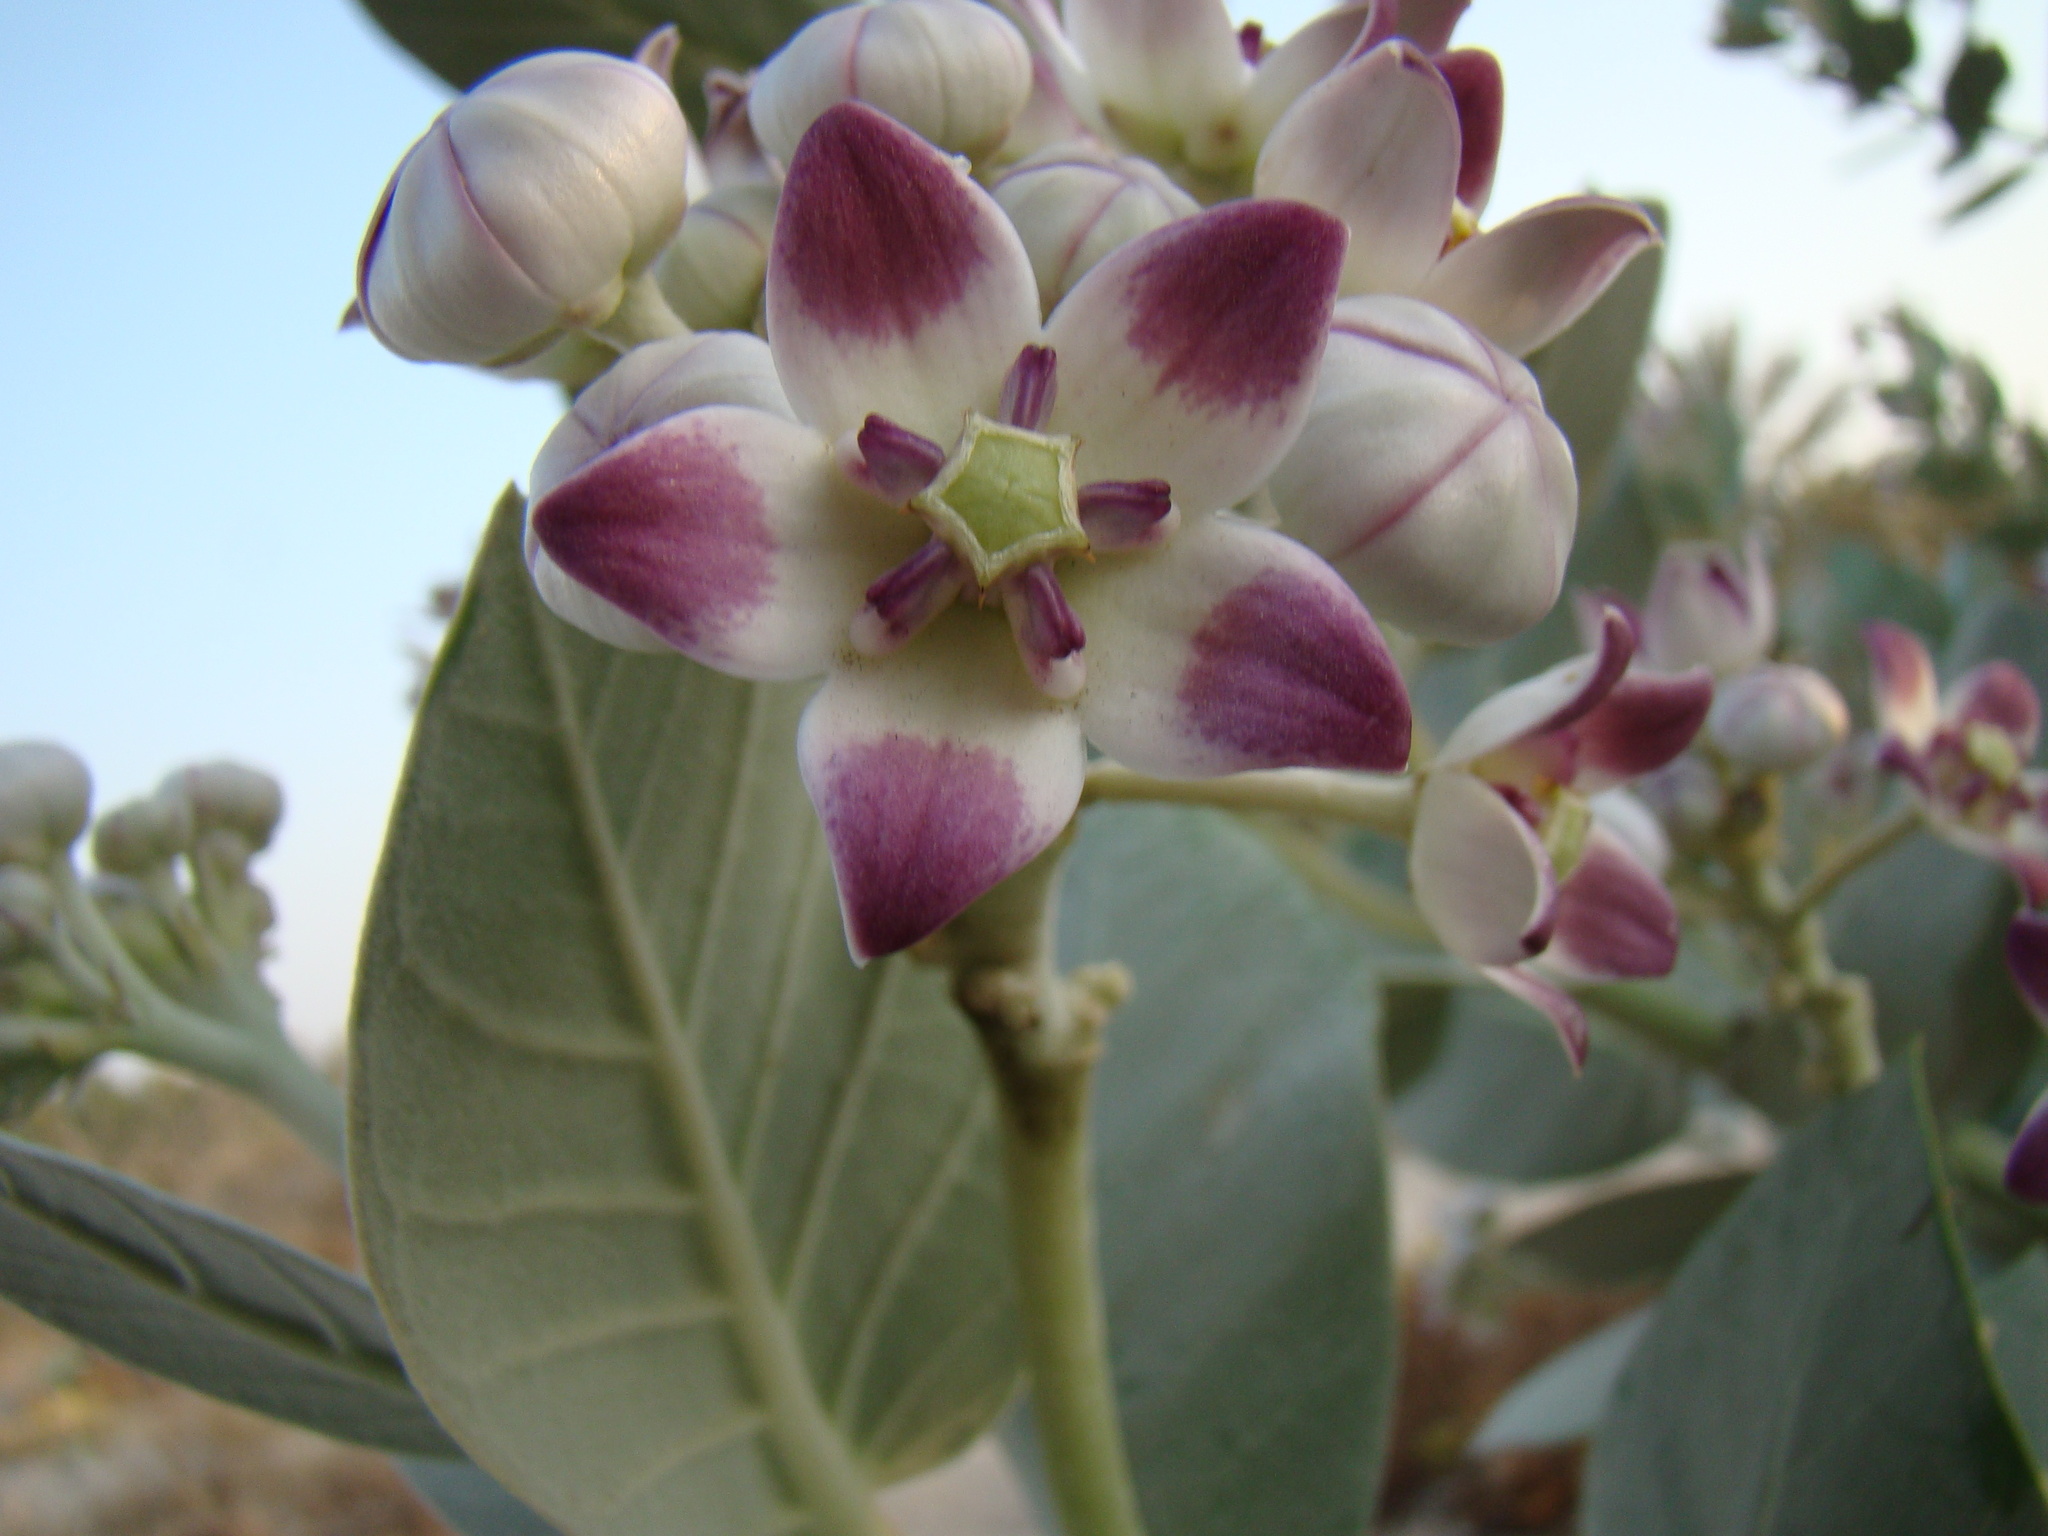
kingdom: Plantae
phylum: Tracheophyta
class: Magnoliopsida
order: Gentianales
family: Apocynaceae
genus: Calotropis
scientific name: Calotropis procera
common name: Roostertree
